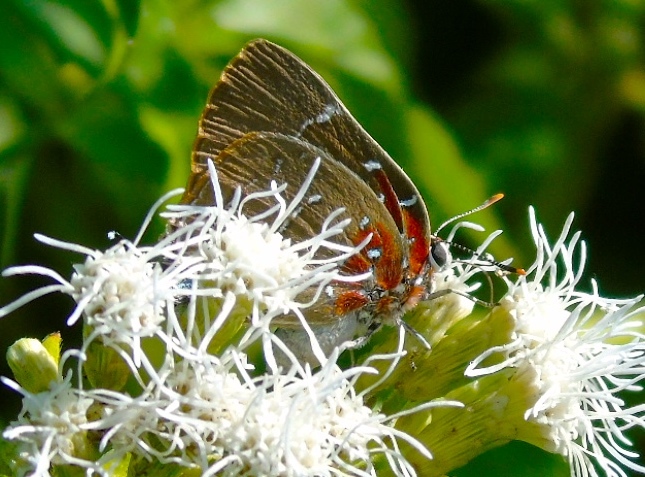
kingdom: Animalia
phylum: Arthropoda
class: Insecta
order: Lepidoptera
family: Lycaenidae
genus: Atlides
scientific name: Atlides Brangas neora
